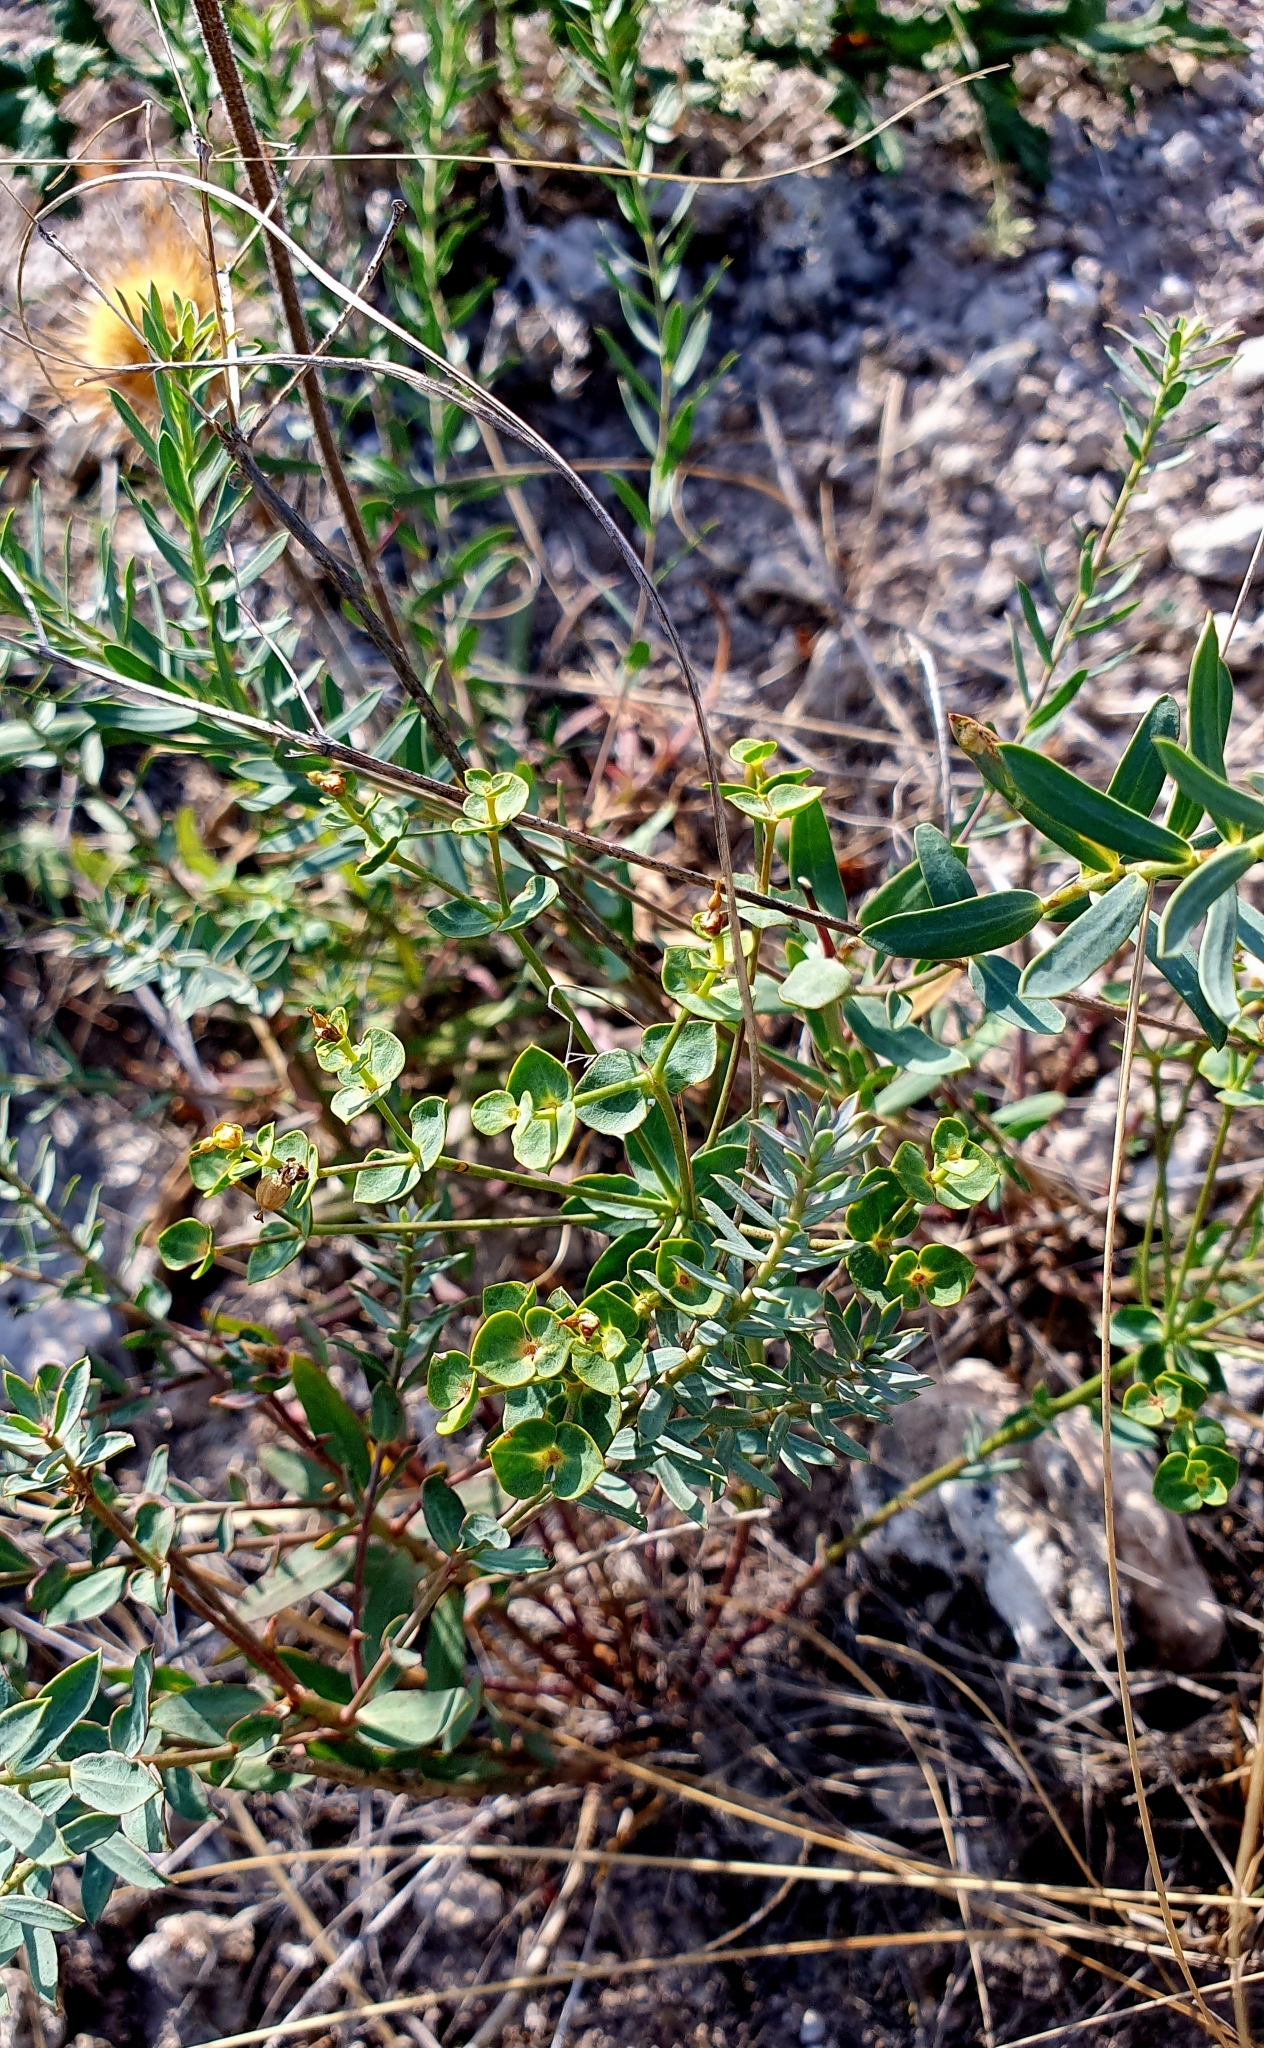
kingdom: Plantae
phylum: Tracheophyta
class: Magnoliopsida
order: Malpighiales
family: Euphorbiaceae
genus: Euphorbia
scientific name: Euphorbia seguieriana
